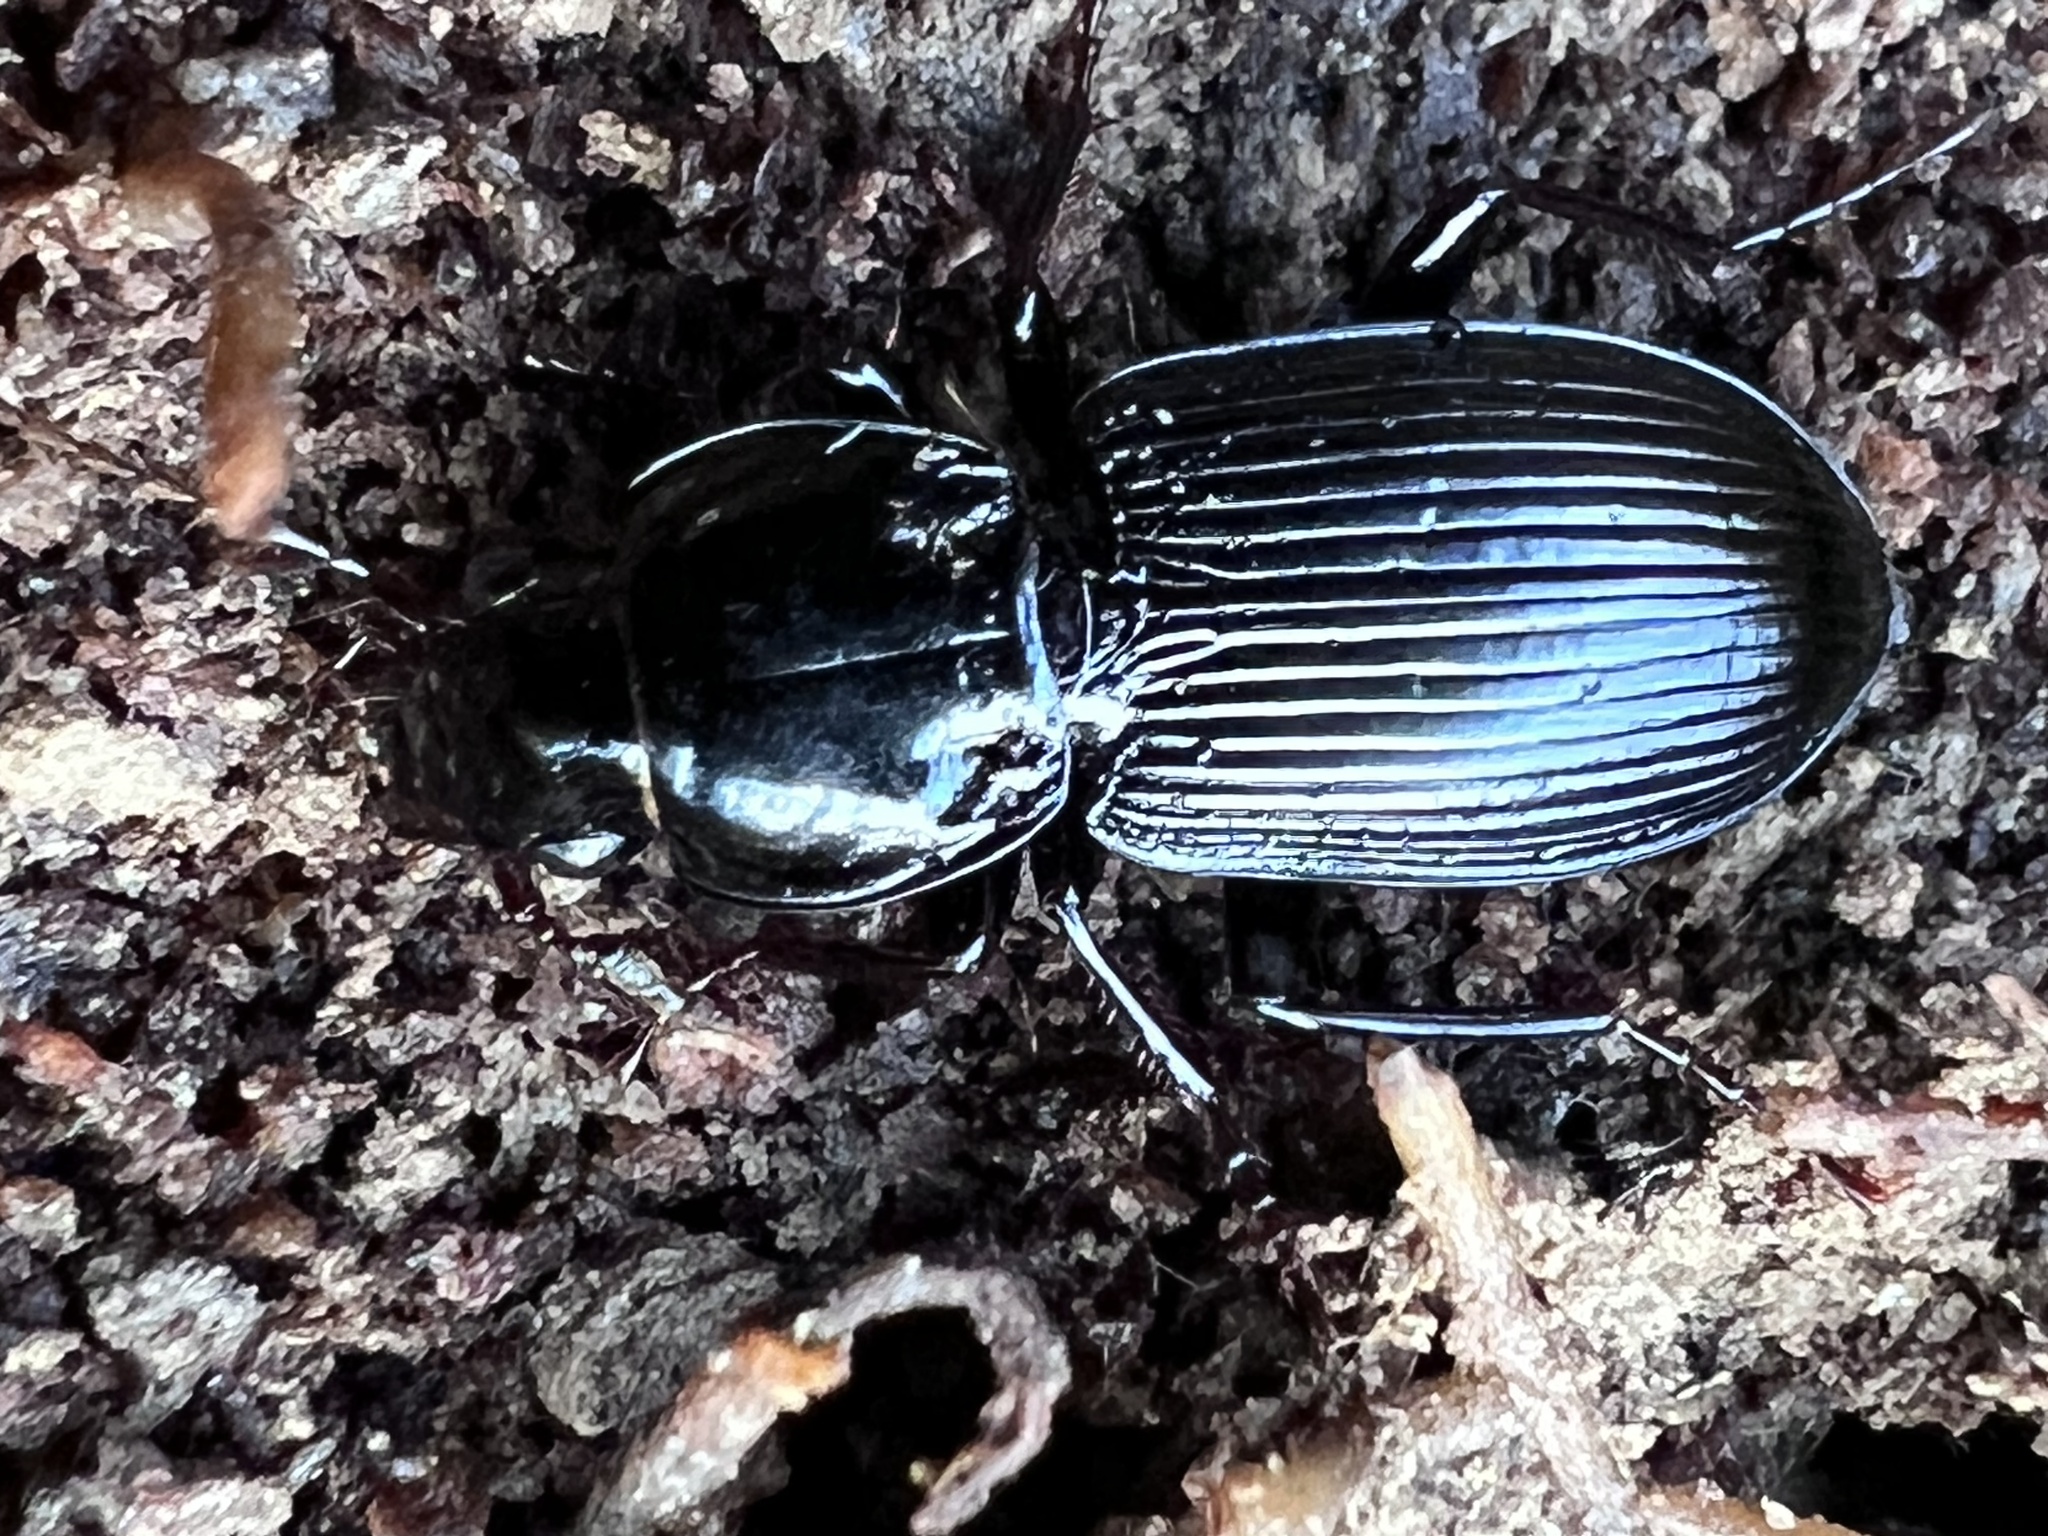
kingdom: Animalia
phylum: Arthropoda
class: Insecta
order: Coleoptera
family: Carabidae
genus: Pterostichus
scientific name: Pterostichus stygicus
